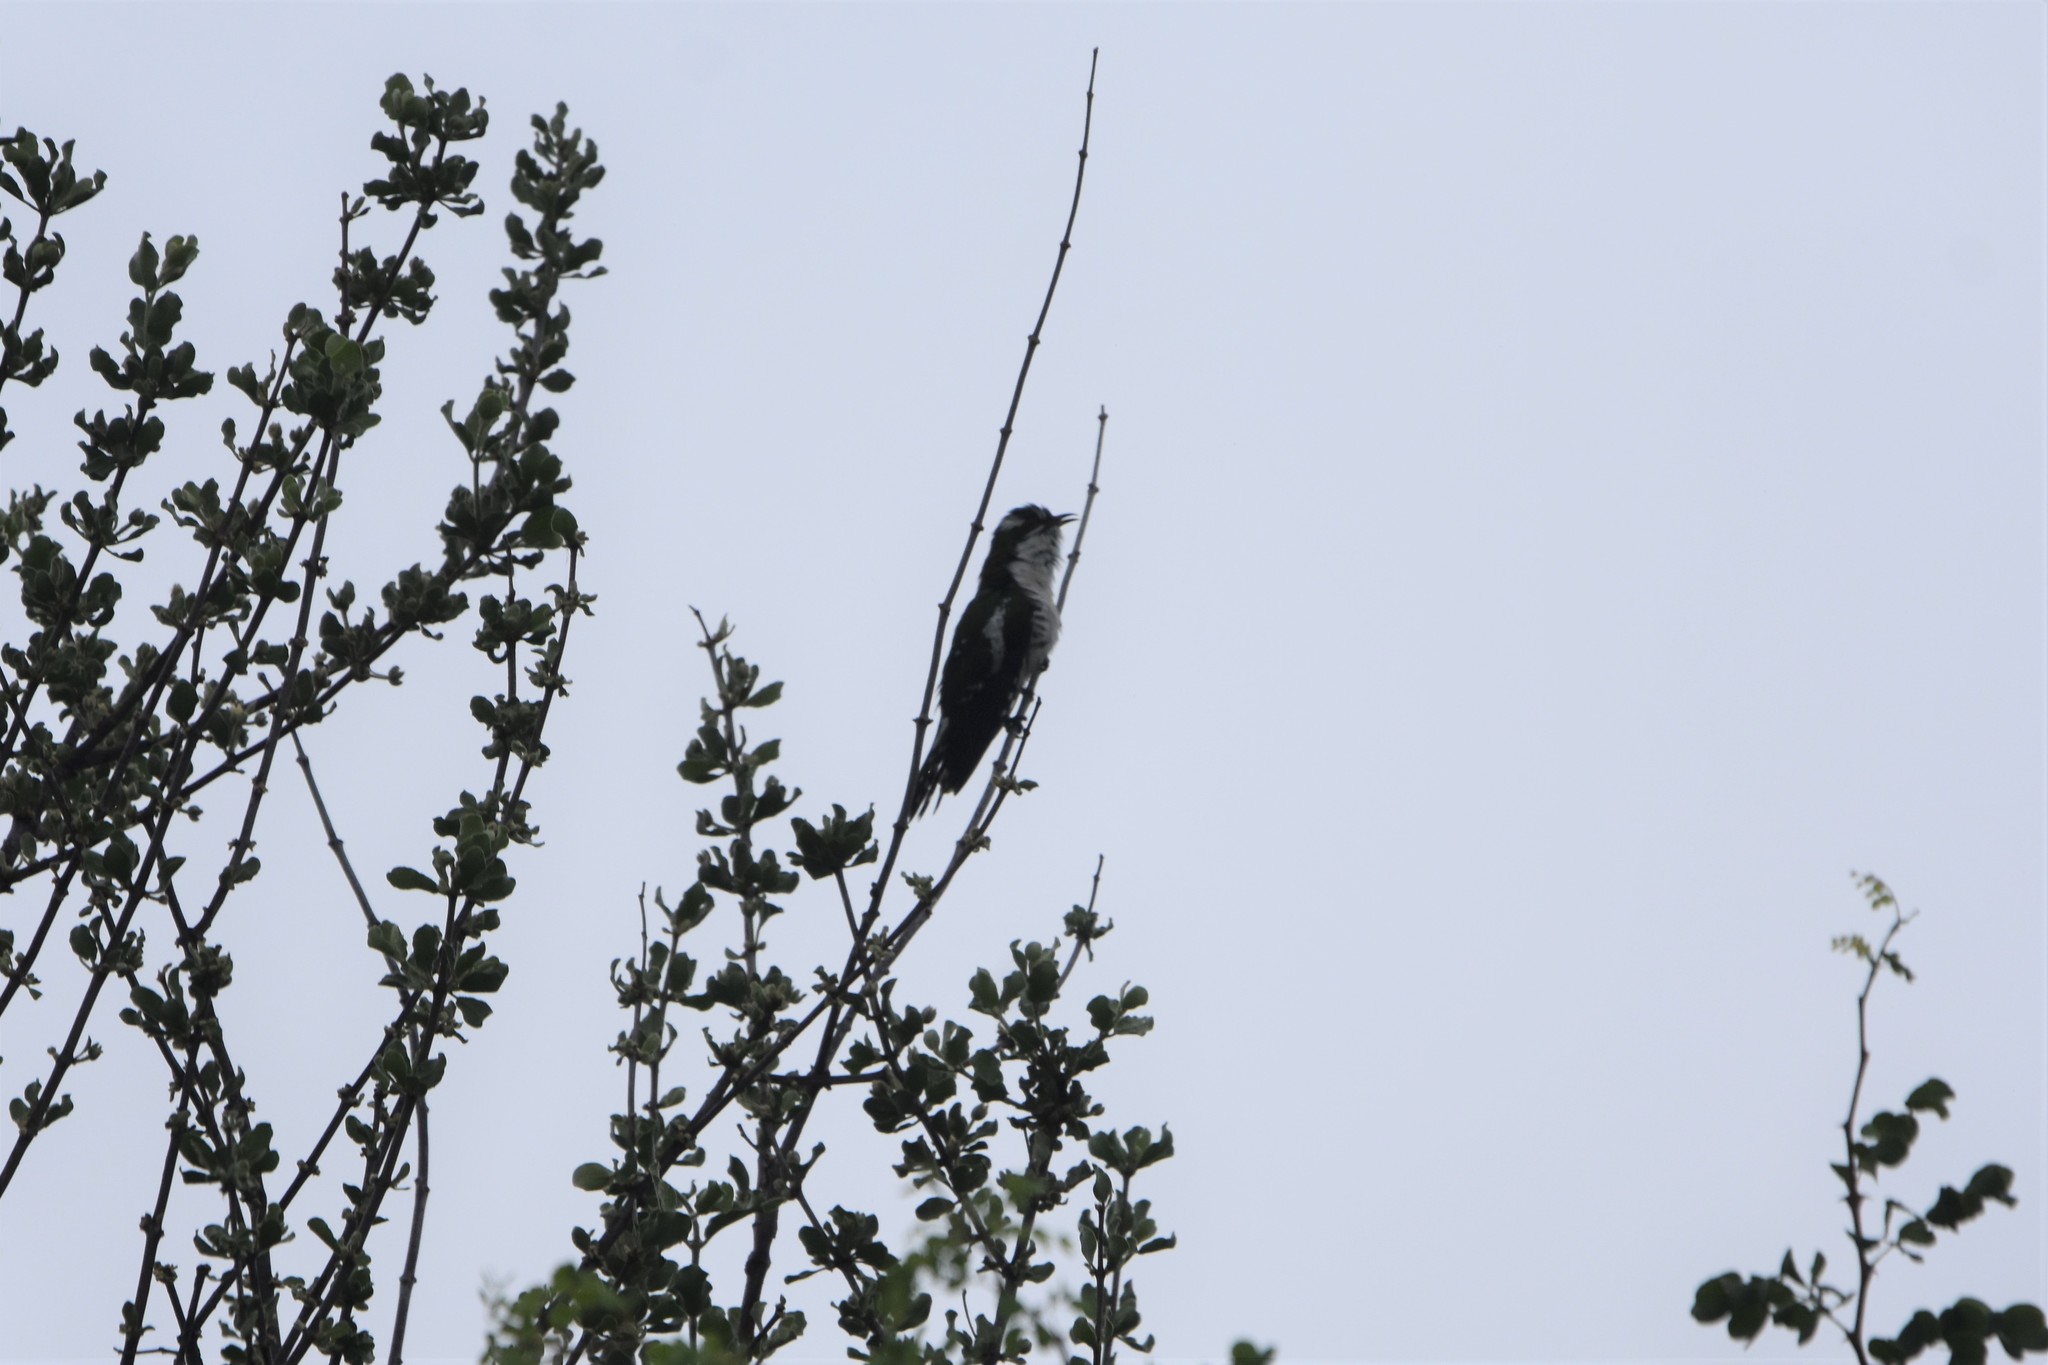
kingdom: Animalia
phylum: Chordata
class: Aves
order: Cuculiformes
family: Cuculidae
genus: Chrysococcyx
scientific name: Chrysococcyx caprius
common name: Diederik cuckoo
